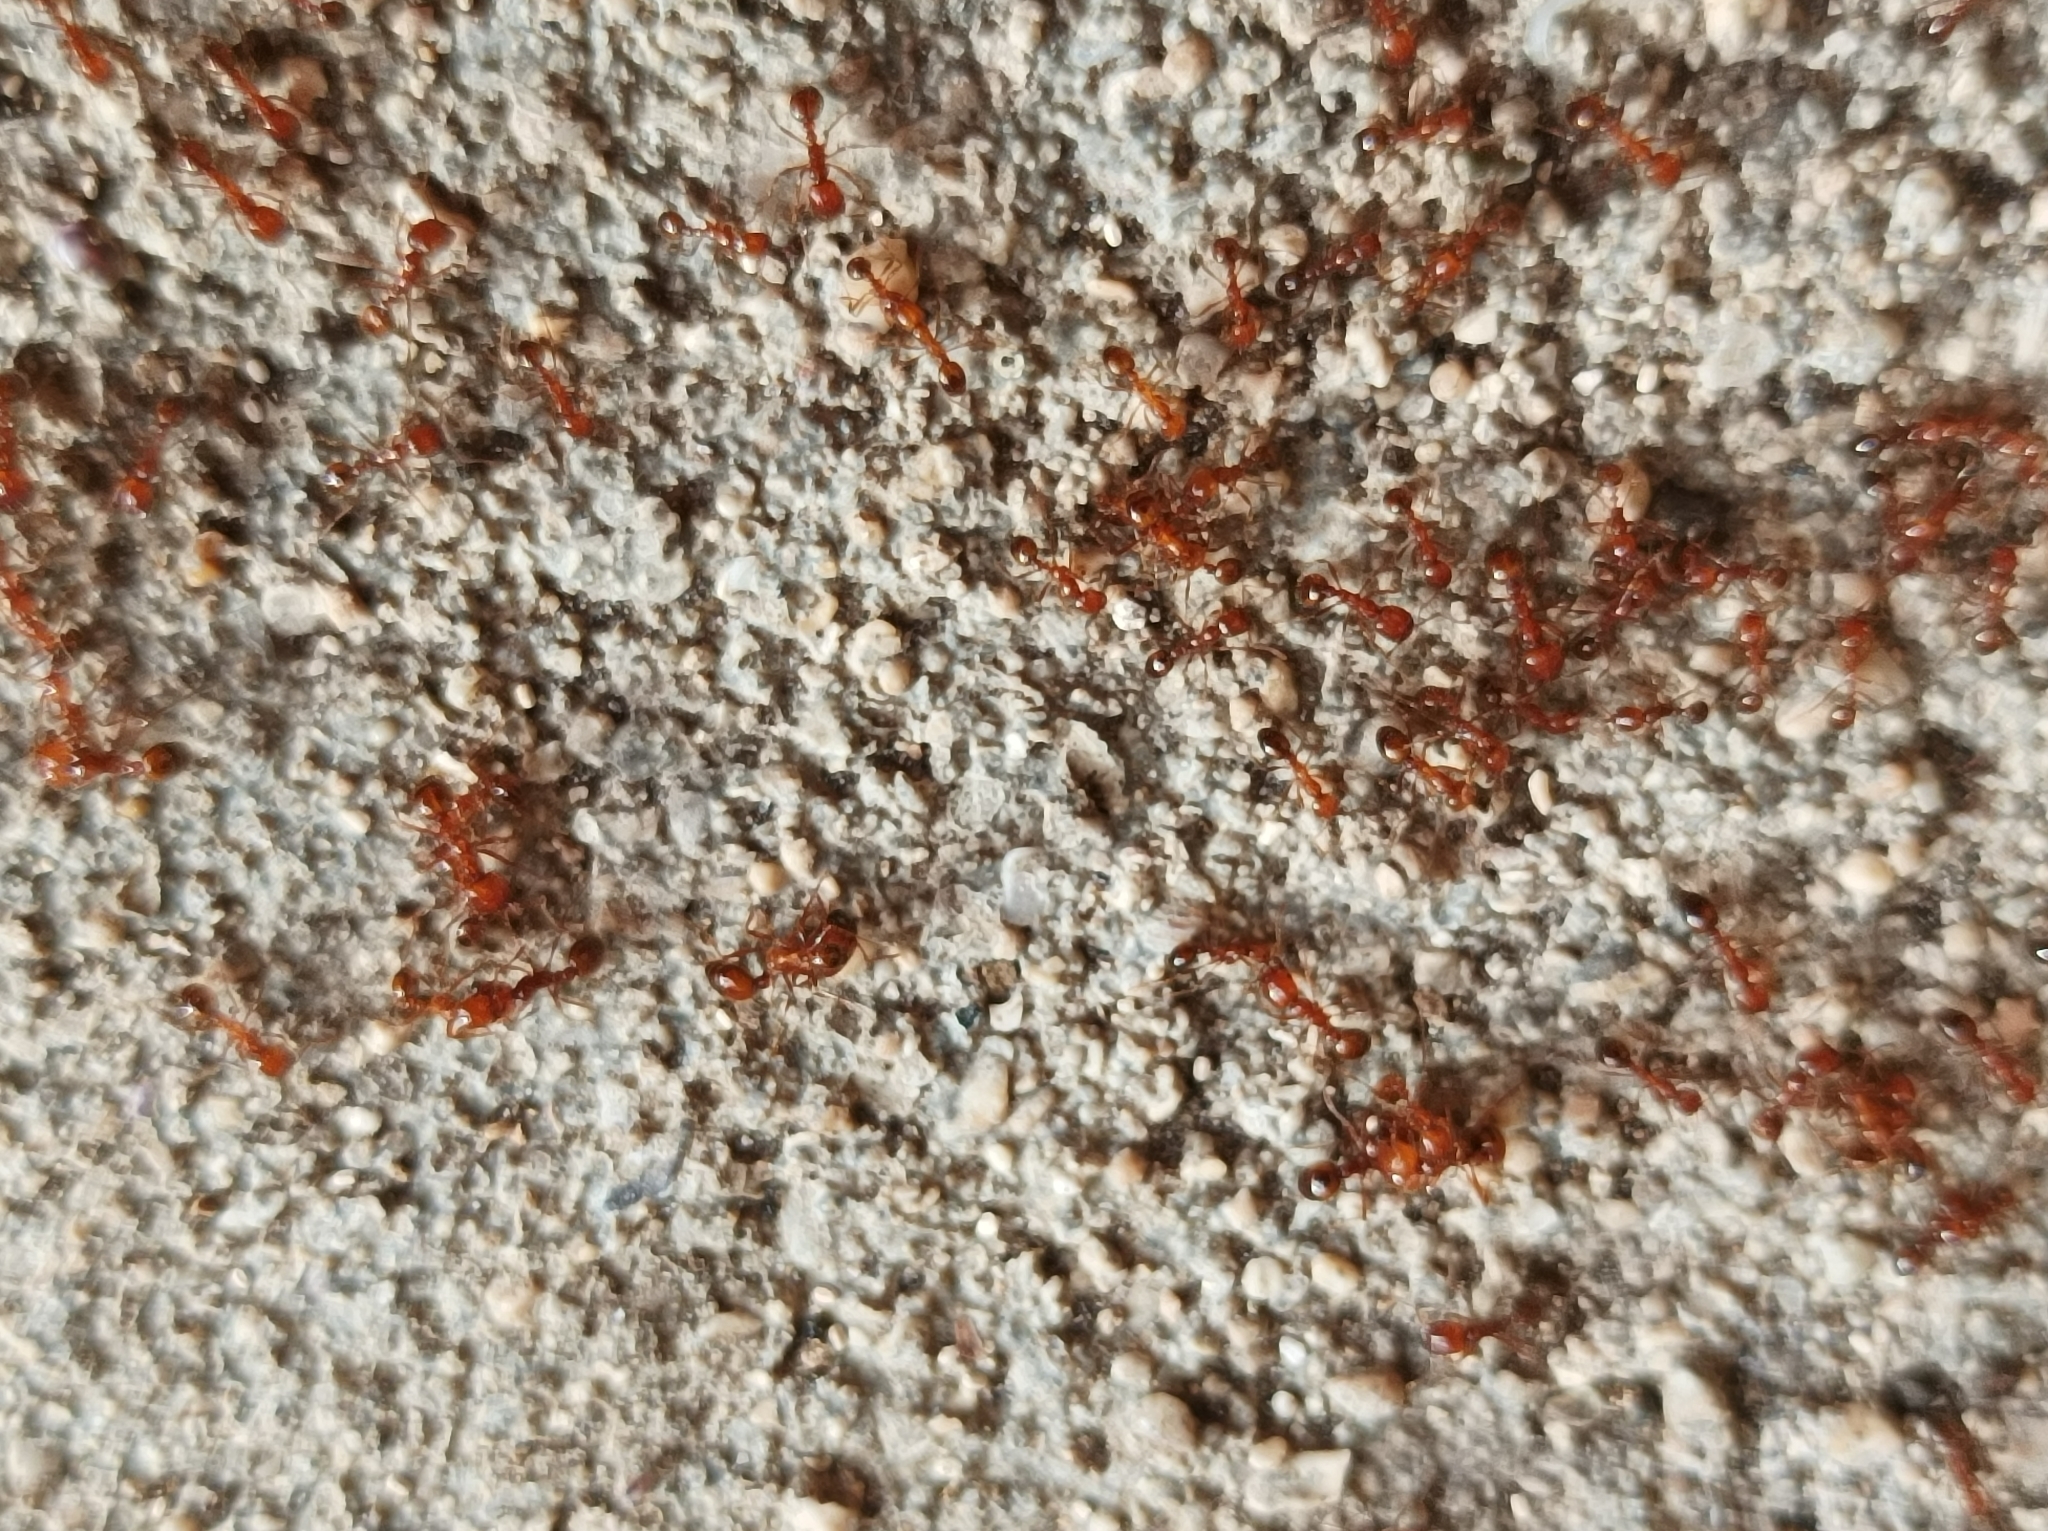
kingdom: Animalia
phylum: Arthropoda
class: Insecta
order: Hymenoptera
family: Formicidae
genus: Solenopsis
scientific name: Solenopsis geminata
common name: Tropical fire ant
